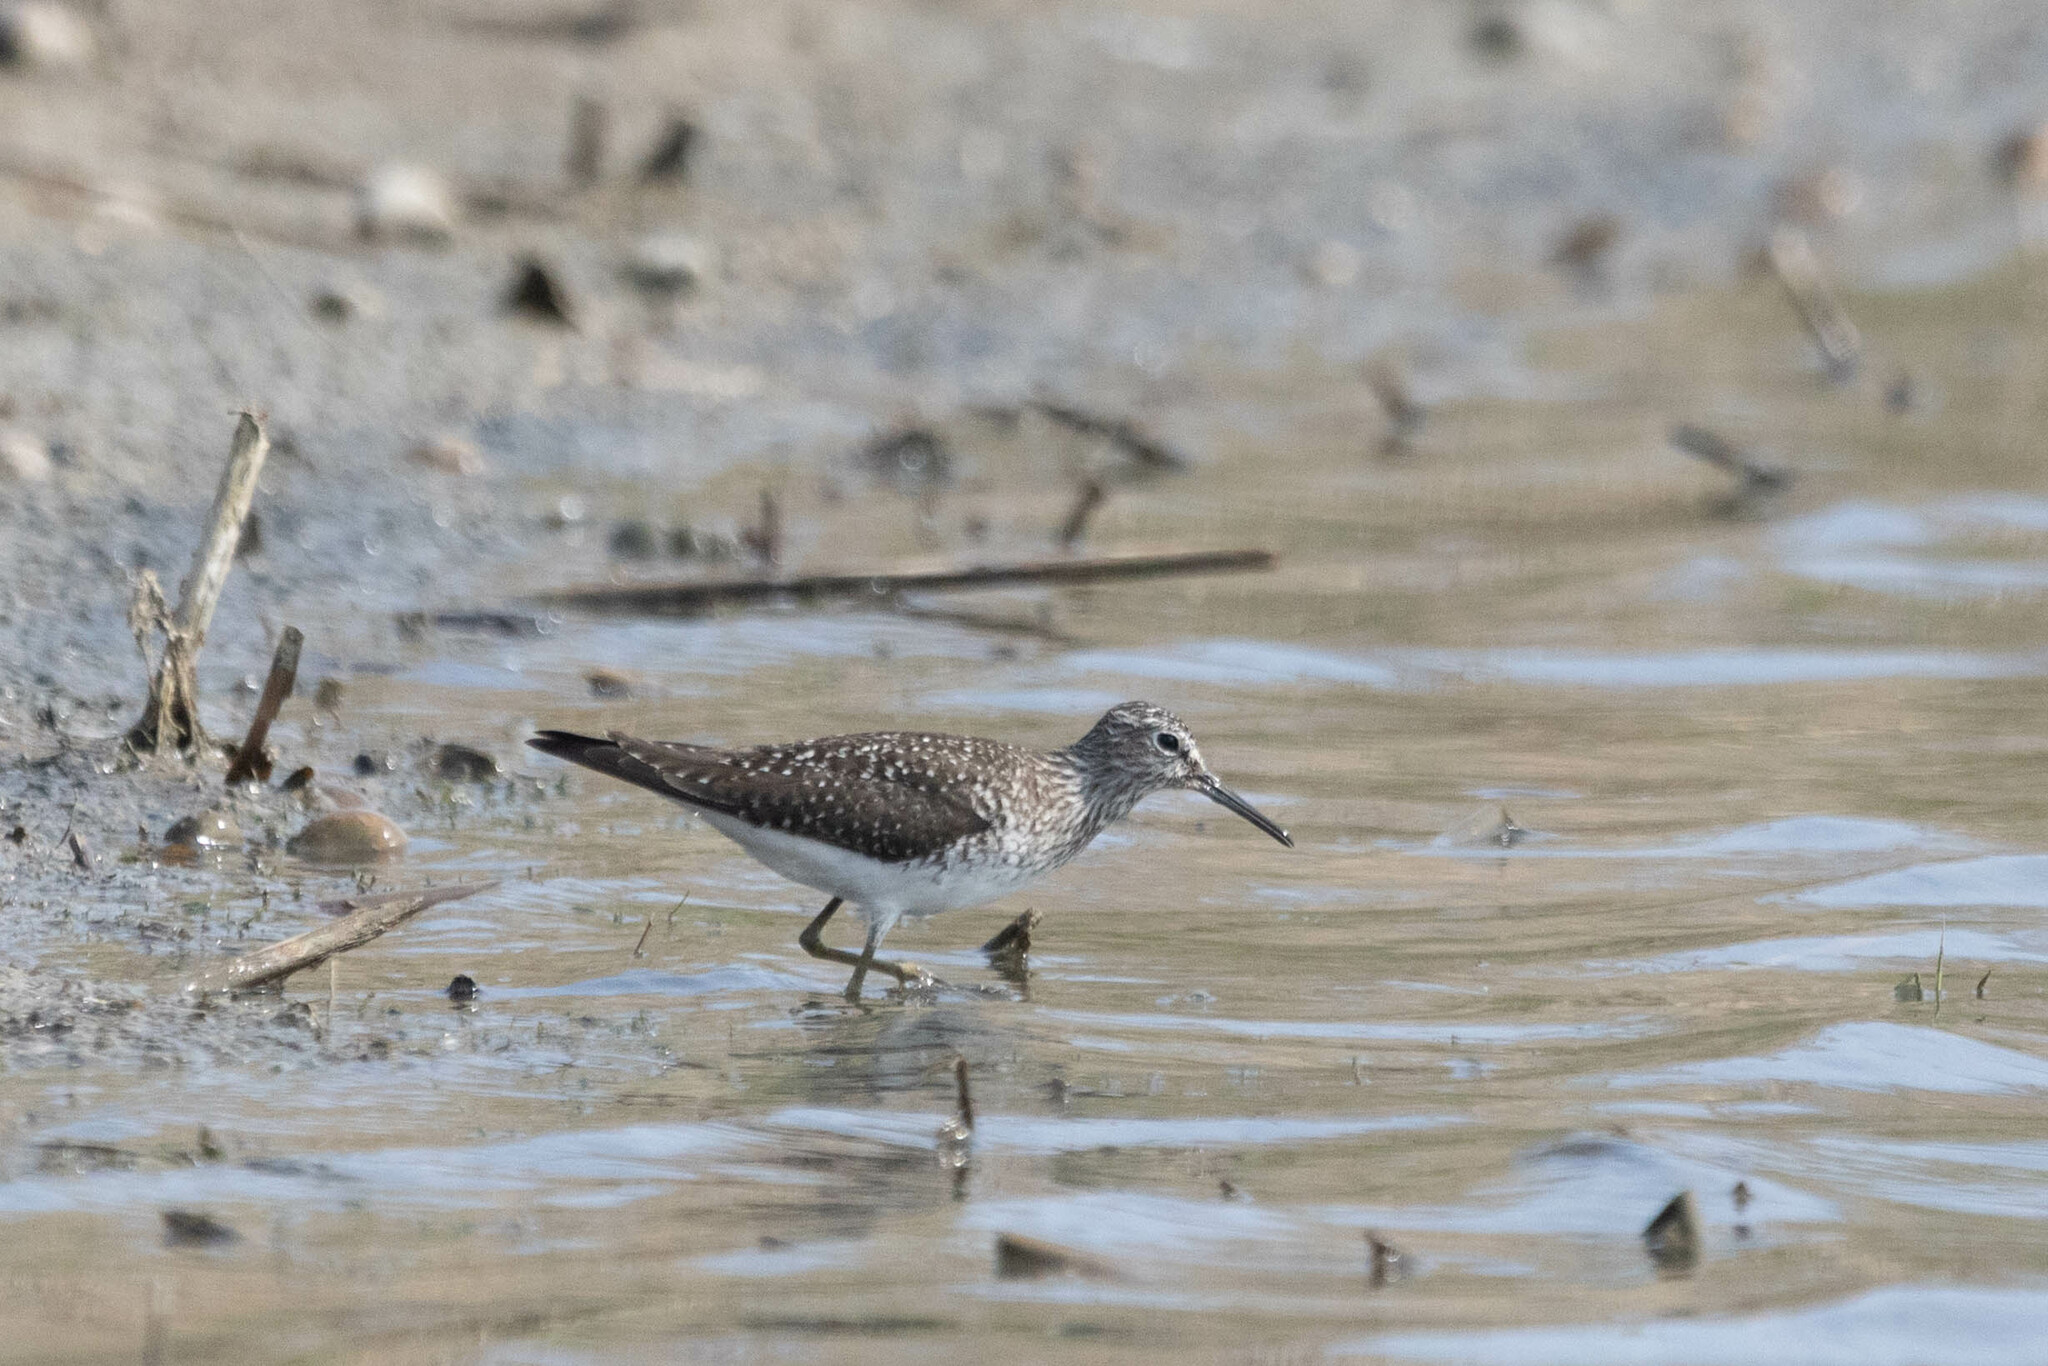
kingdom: Animalia
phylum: Chordata
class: Aves
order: Charadriiformes
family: Scolopacidae
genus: Tringa
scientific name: Tringa solitaria
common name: Solitary sandpiper
